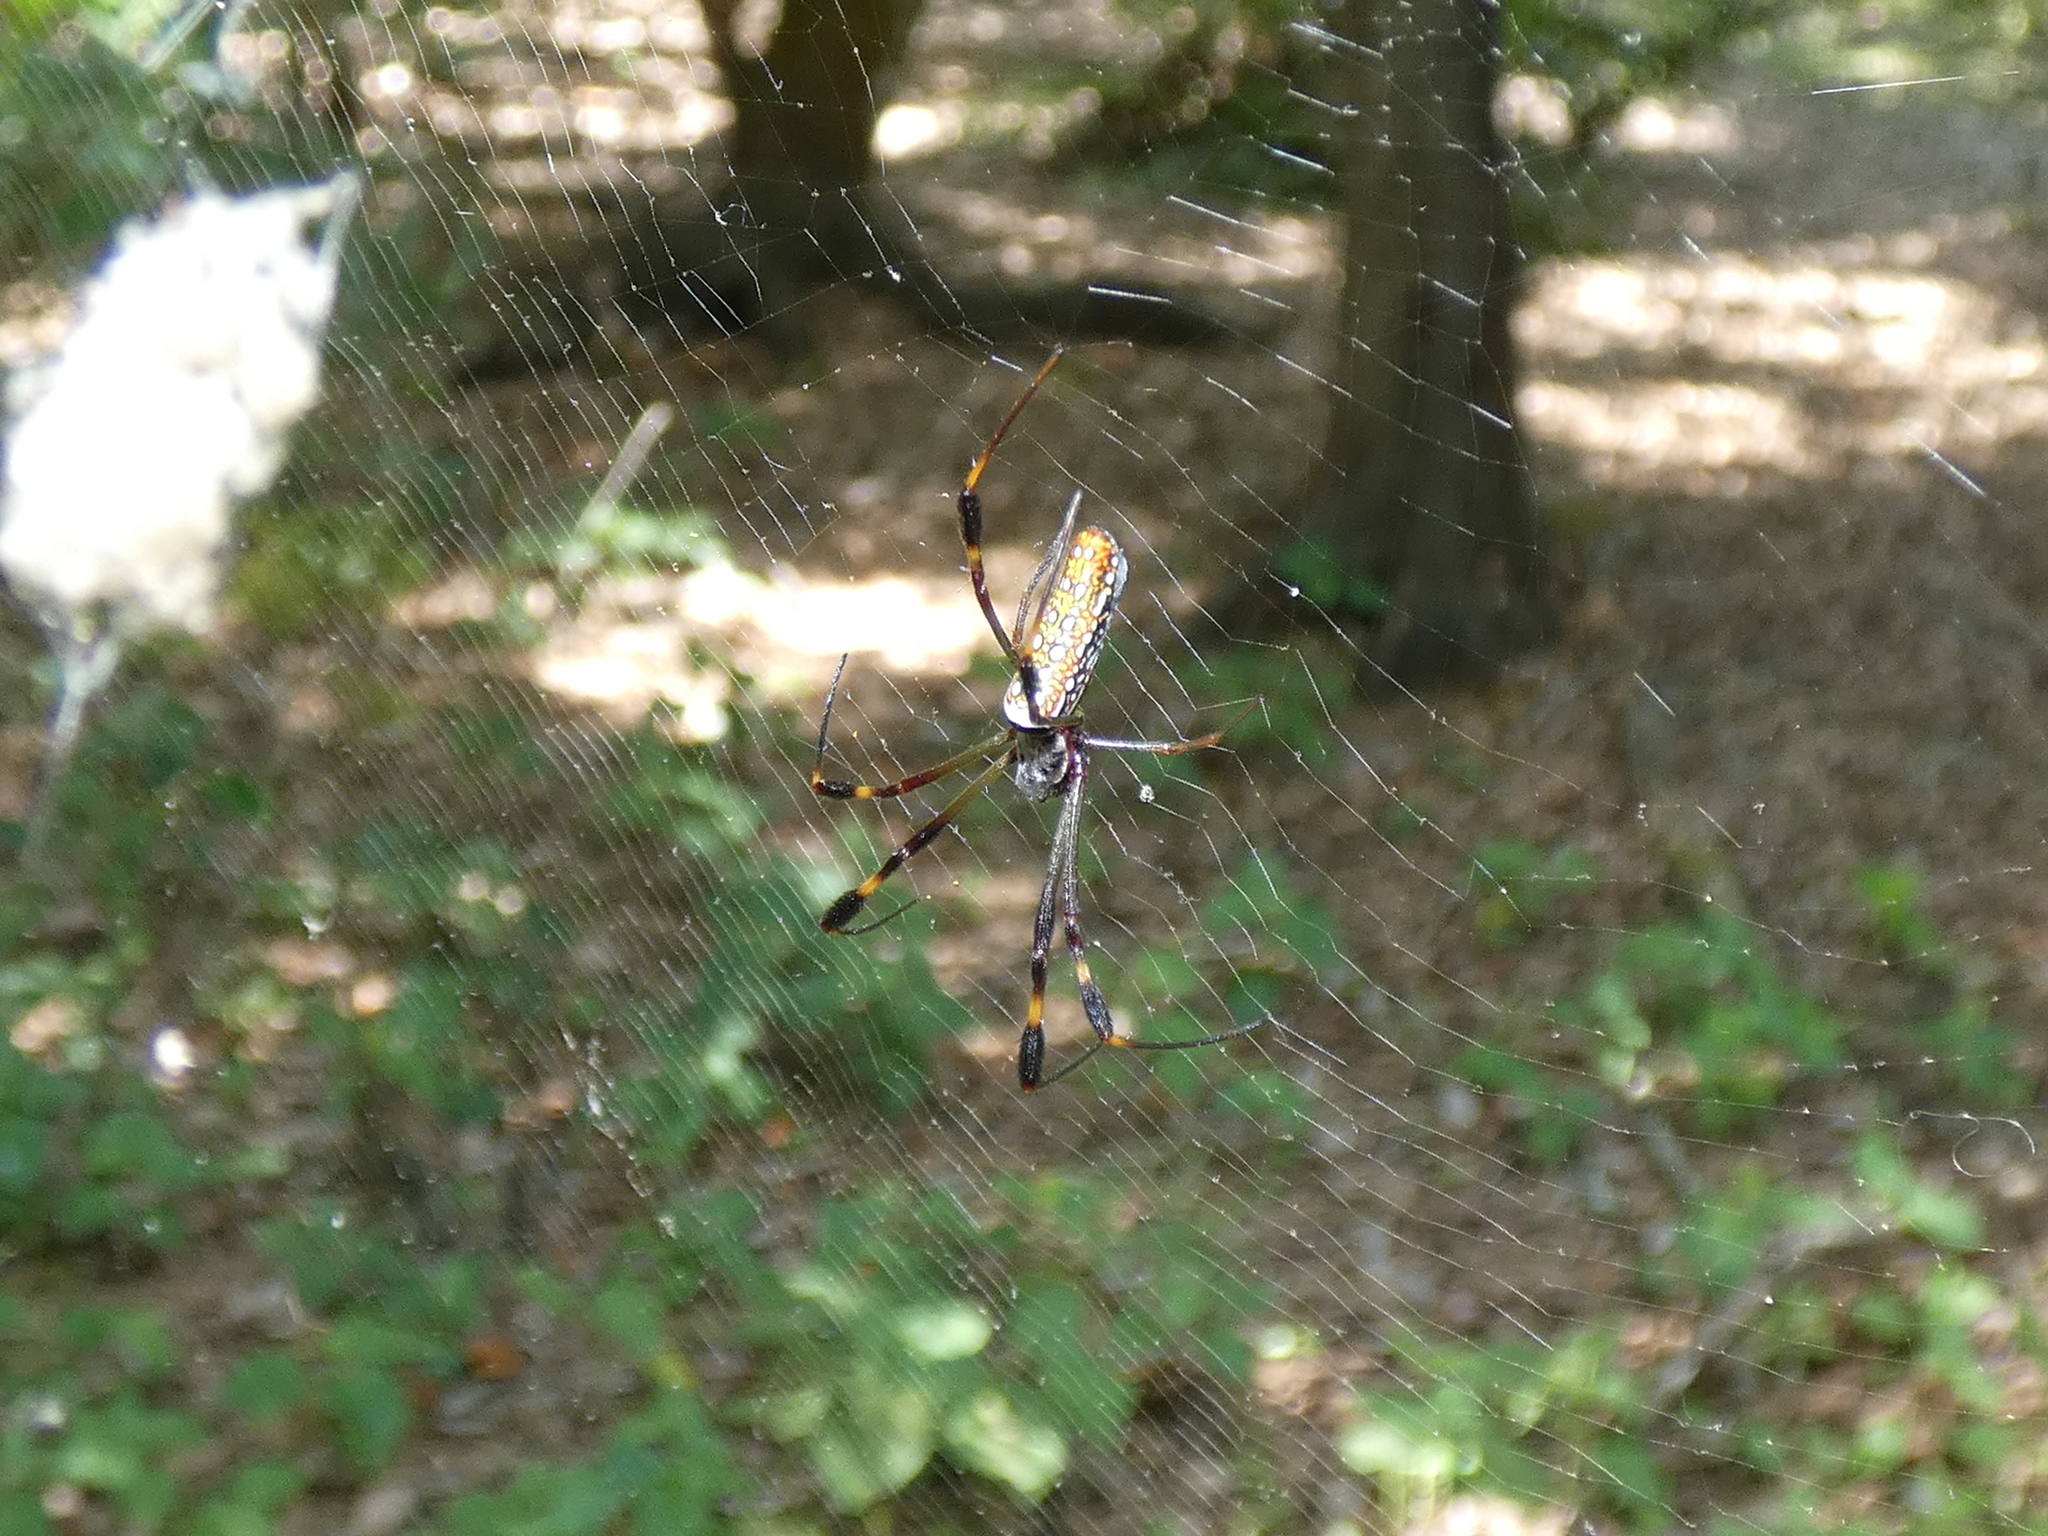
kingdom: Animalia
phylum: Arthropoda
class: Arachnida
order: Araneae
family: Araneidae
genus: Trichonephila
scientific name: Trichonephila clavipes
